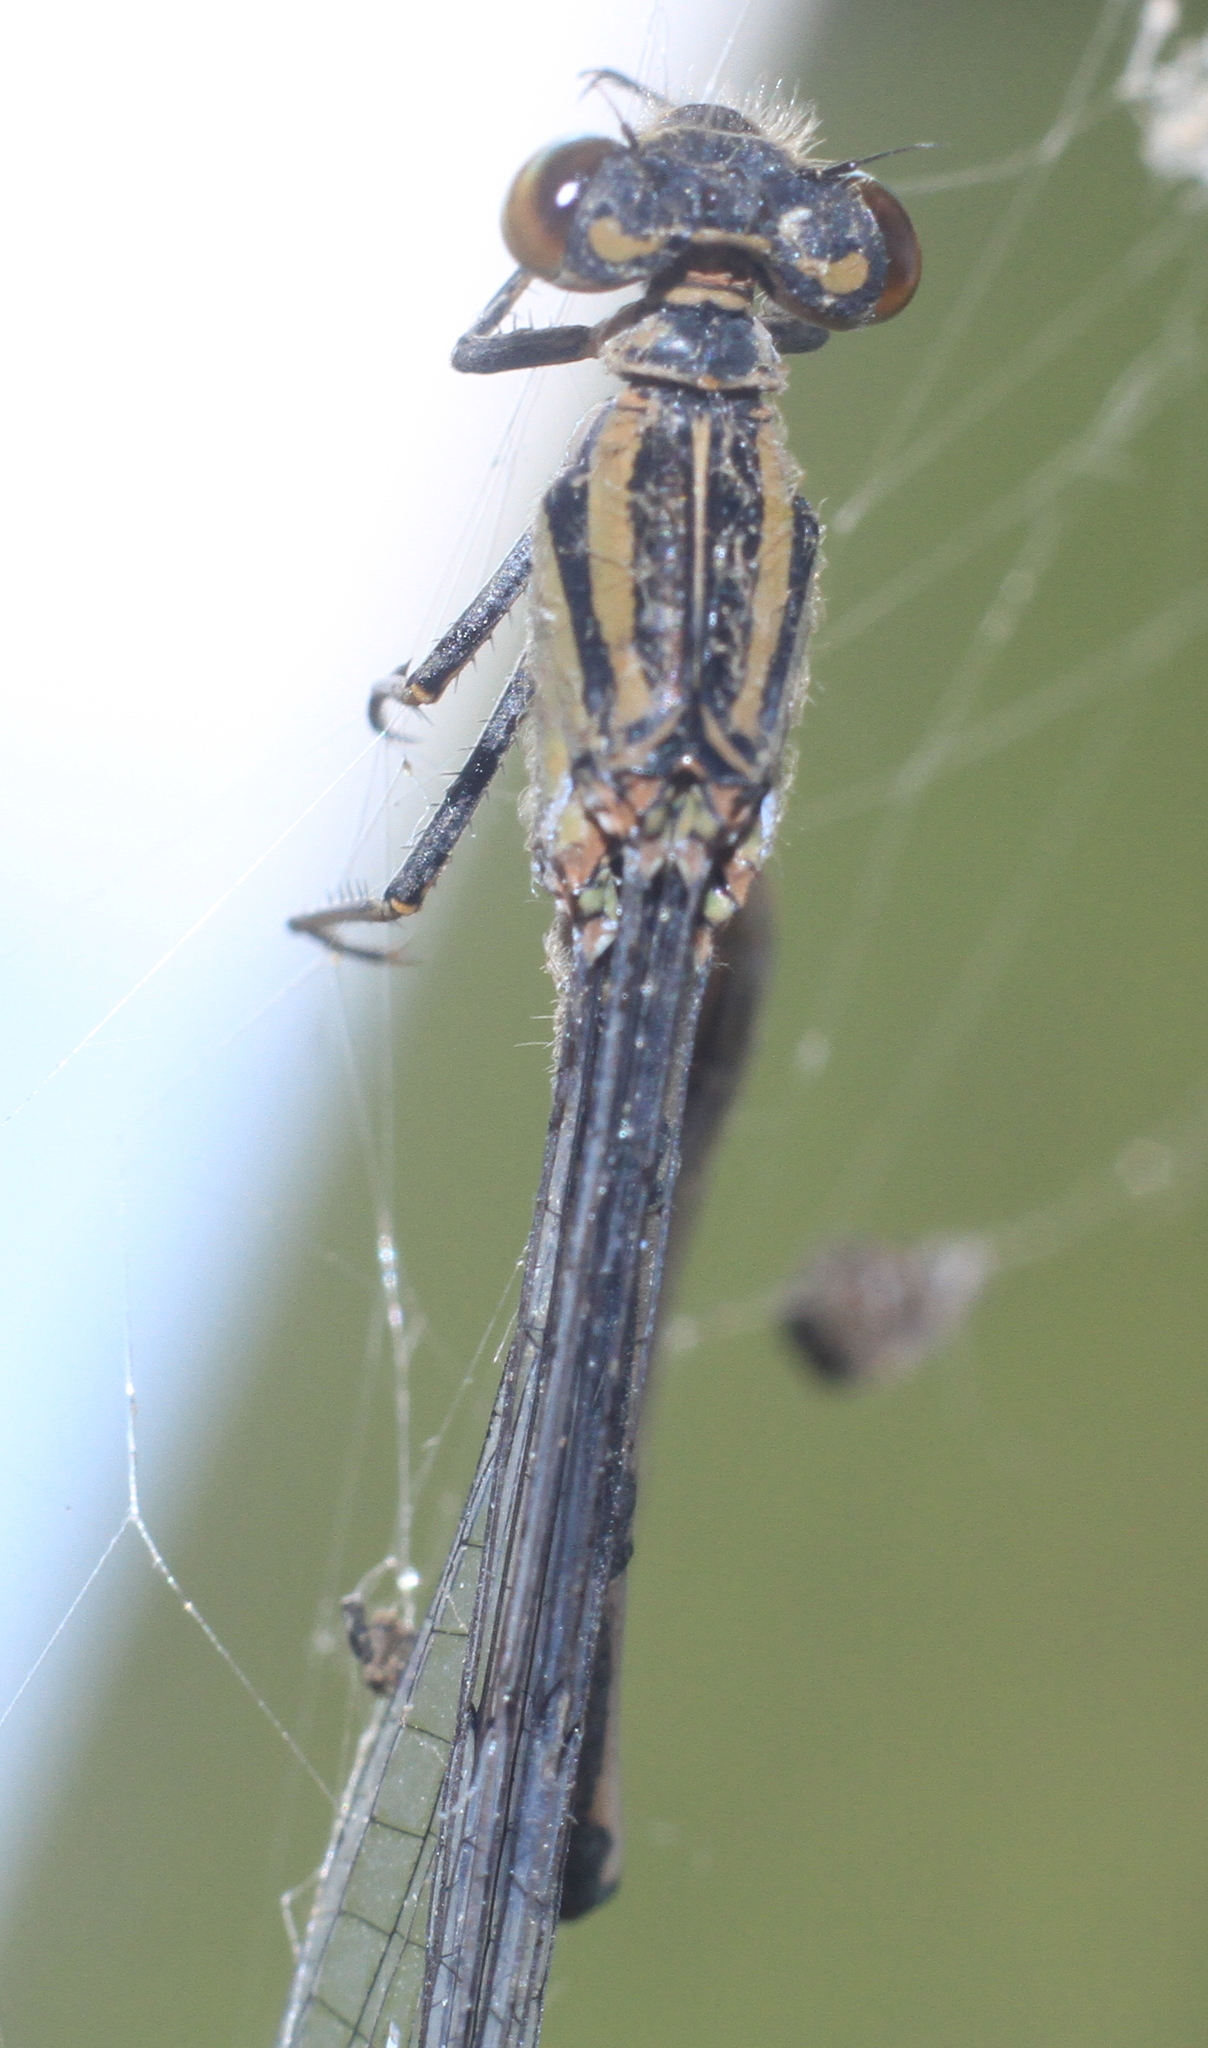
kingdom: Animalia
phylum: Arthropoda
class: Insecta
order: Odonata
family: Coenagrionidae
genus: Enallagma
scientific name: Enallagma cyathigerum
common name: Common blue damselfly
